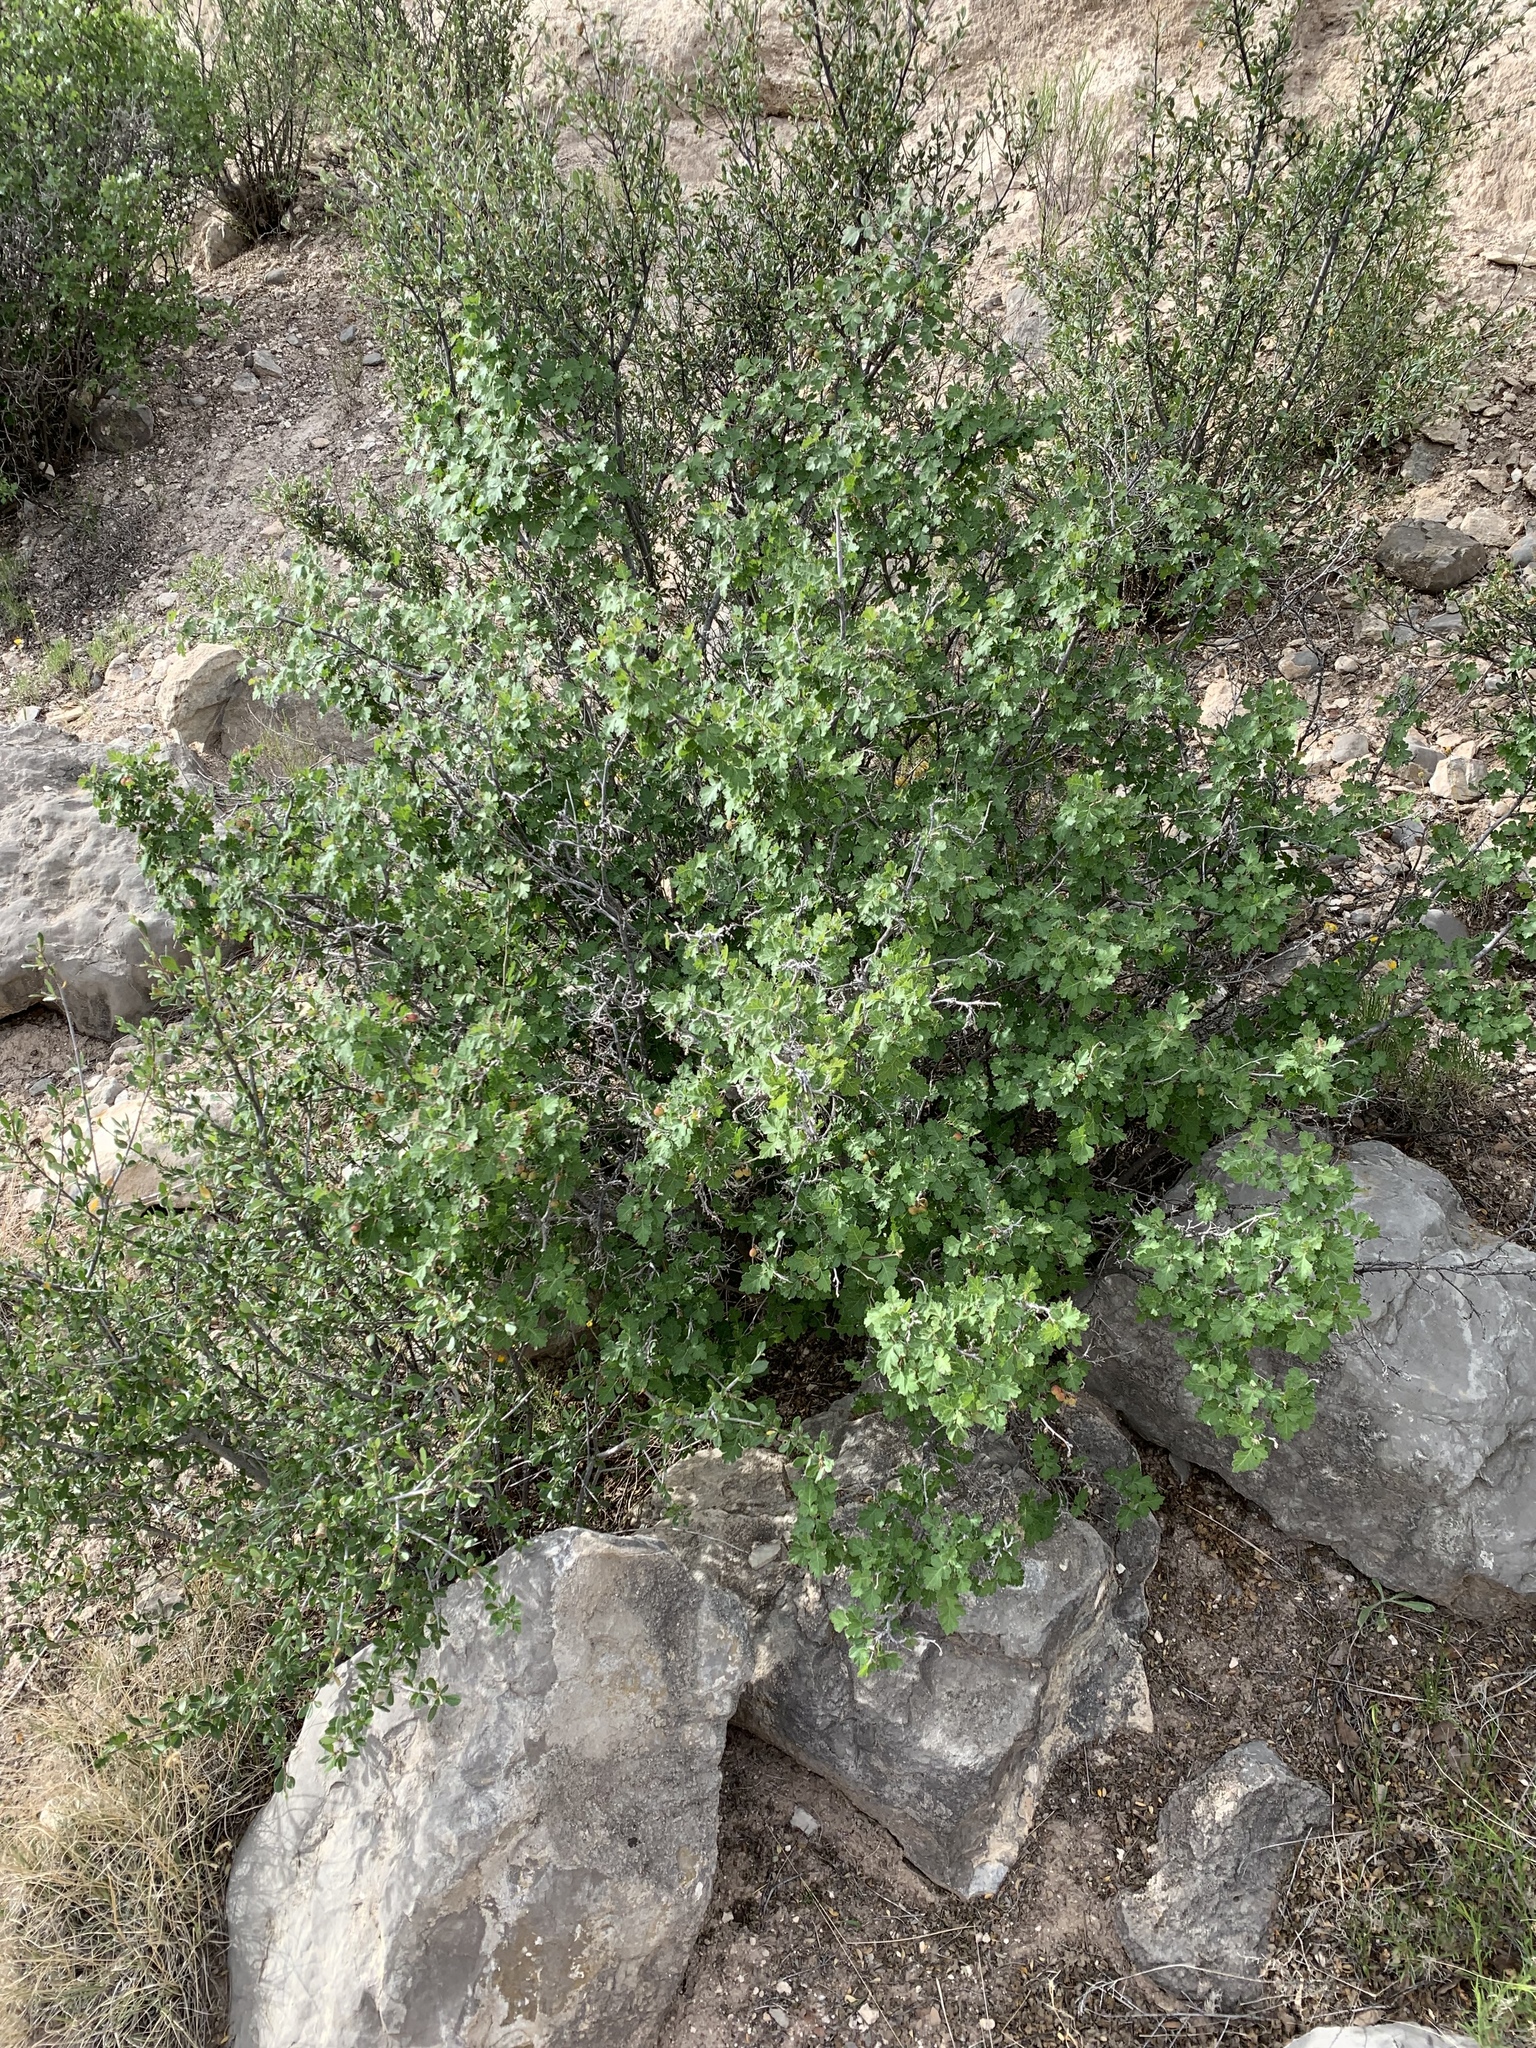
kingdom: Plantae
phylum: Tracheophyta
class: Magnoliopsida
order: Sapindales
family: Anacardiaceae
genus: Rhus
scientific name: Rhus aromatica
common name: Aromatic sumac
